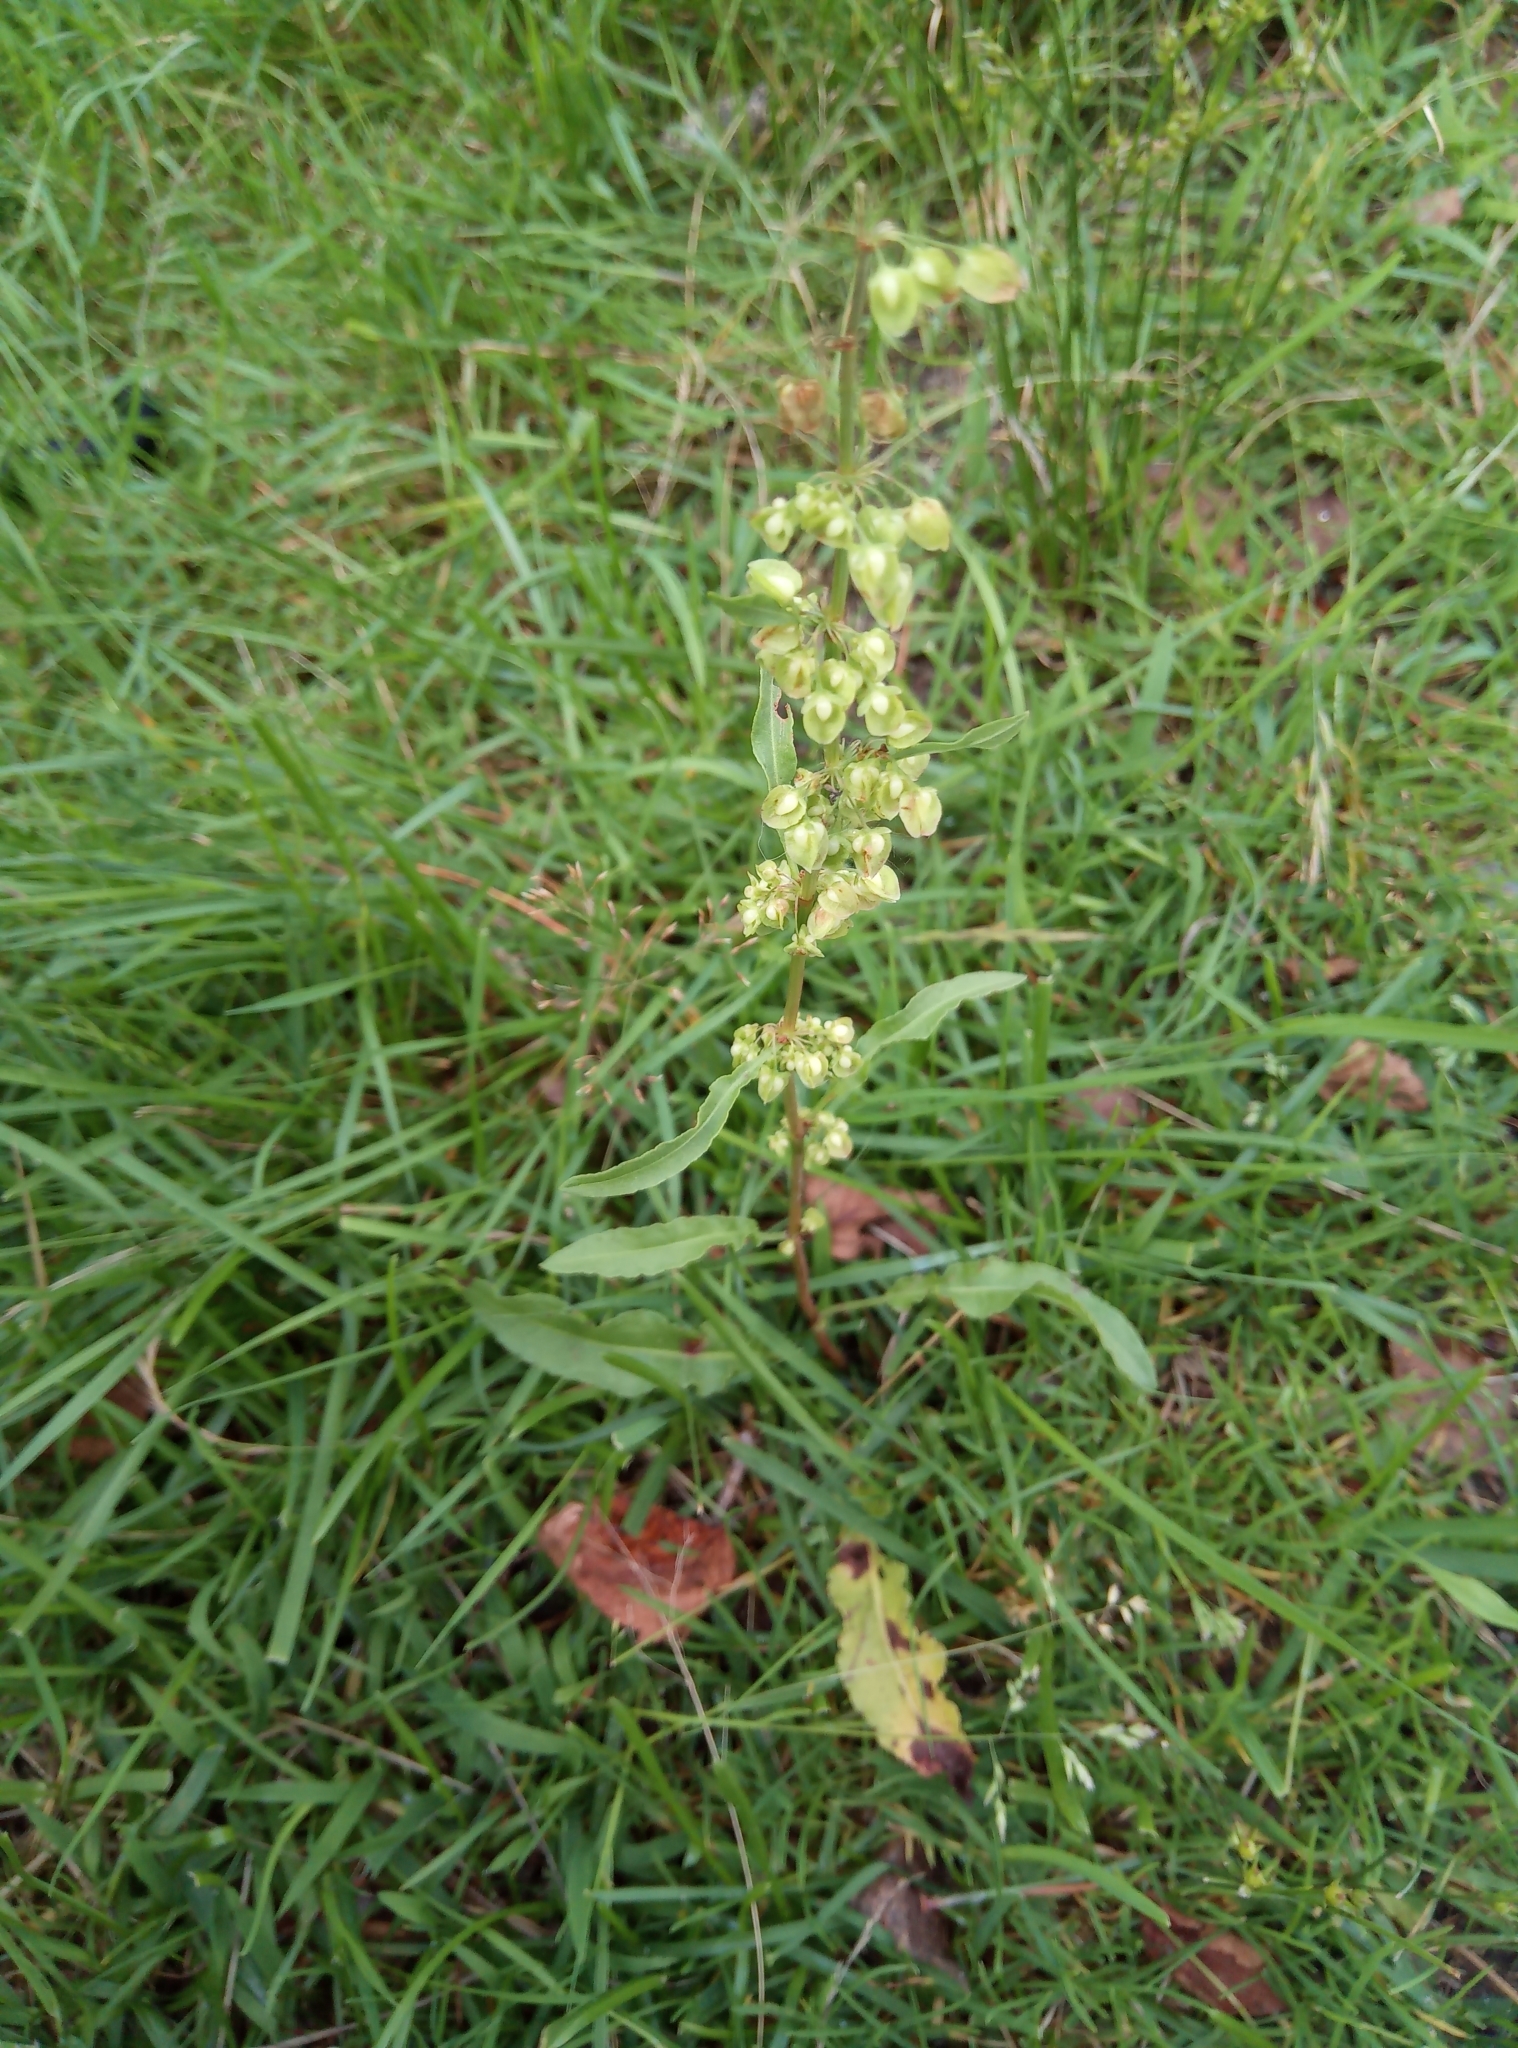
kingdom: Plantae
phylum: Tracheophyta
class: Magnoliopsida
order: Caryophyllales
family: Polygonaceae
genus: Rumex
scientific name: Rumex crispus
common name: Curled dock
